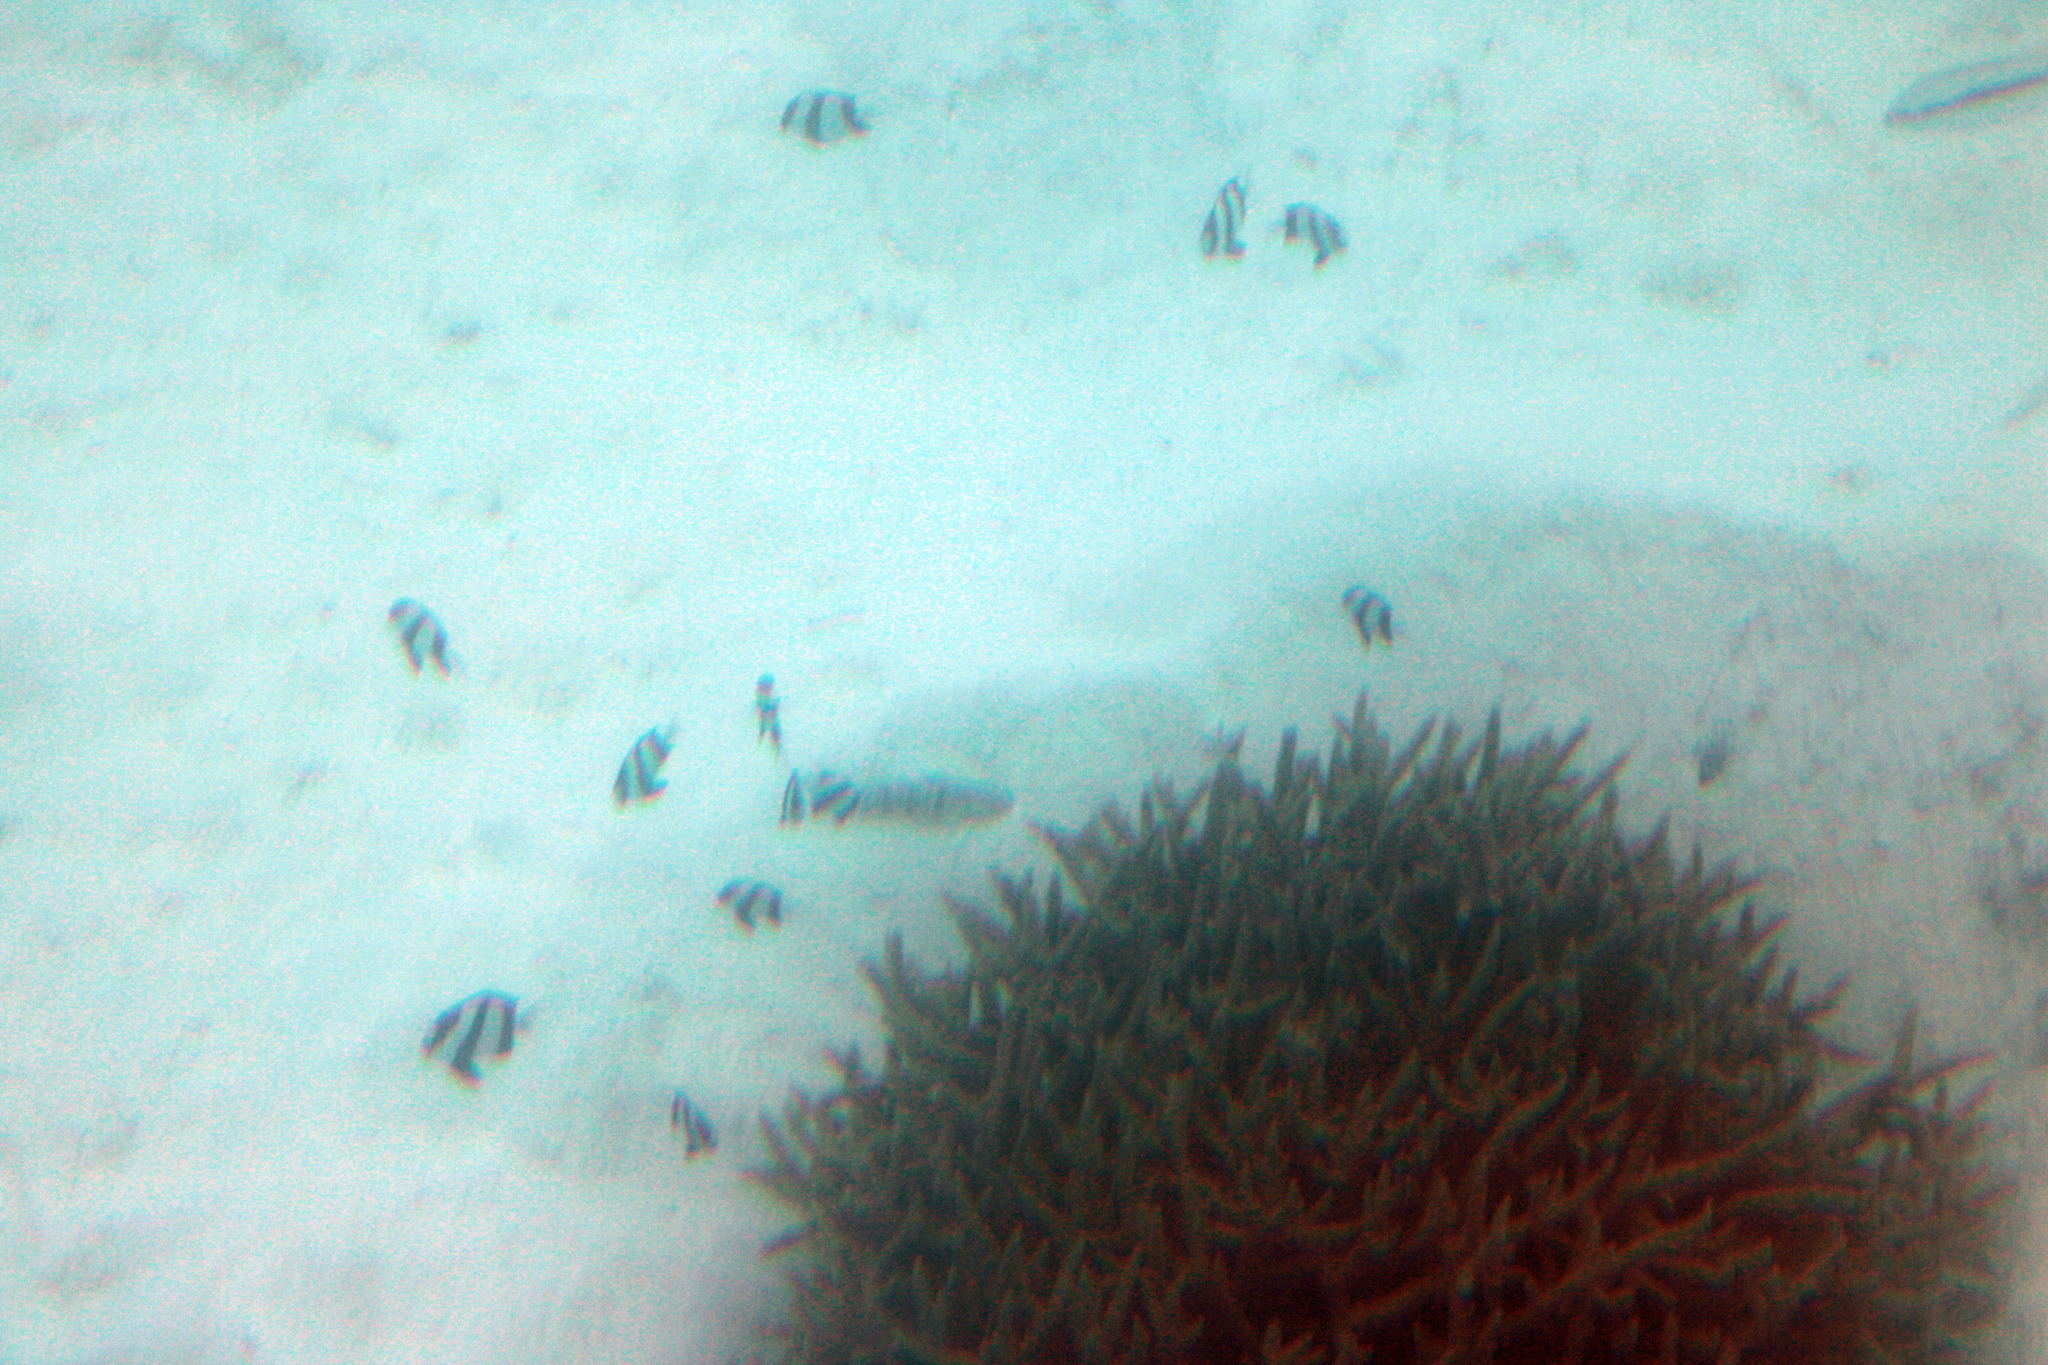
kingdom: Animalia
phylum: Chordata
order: Perciformes
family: Pomacentridae
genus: Dascyllus
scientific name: Dascyllus aruanus
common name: Humbug dascyllus
